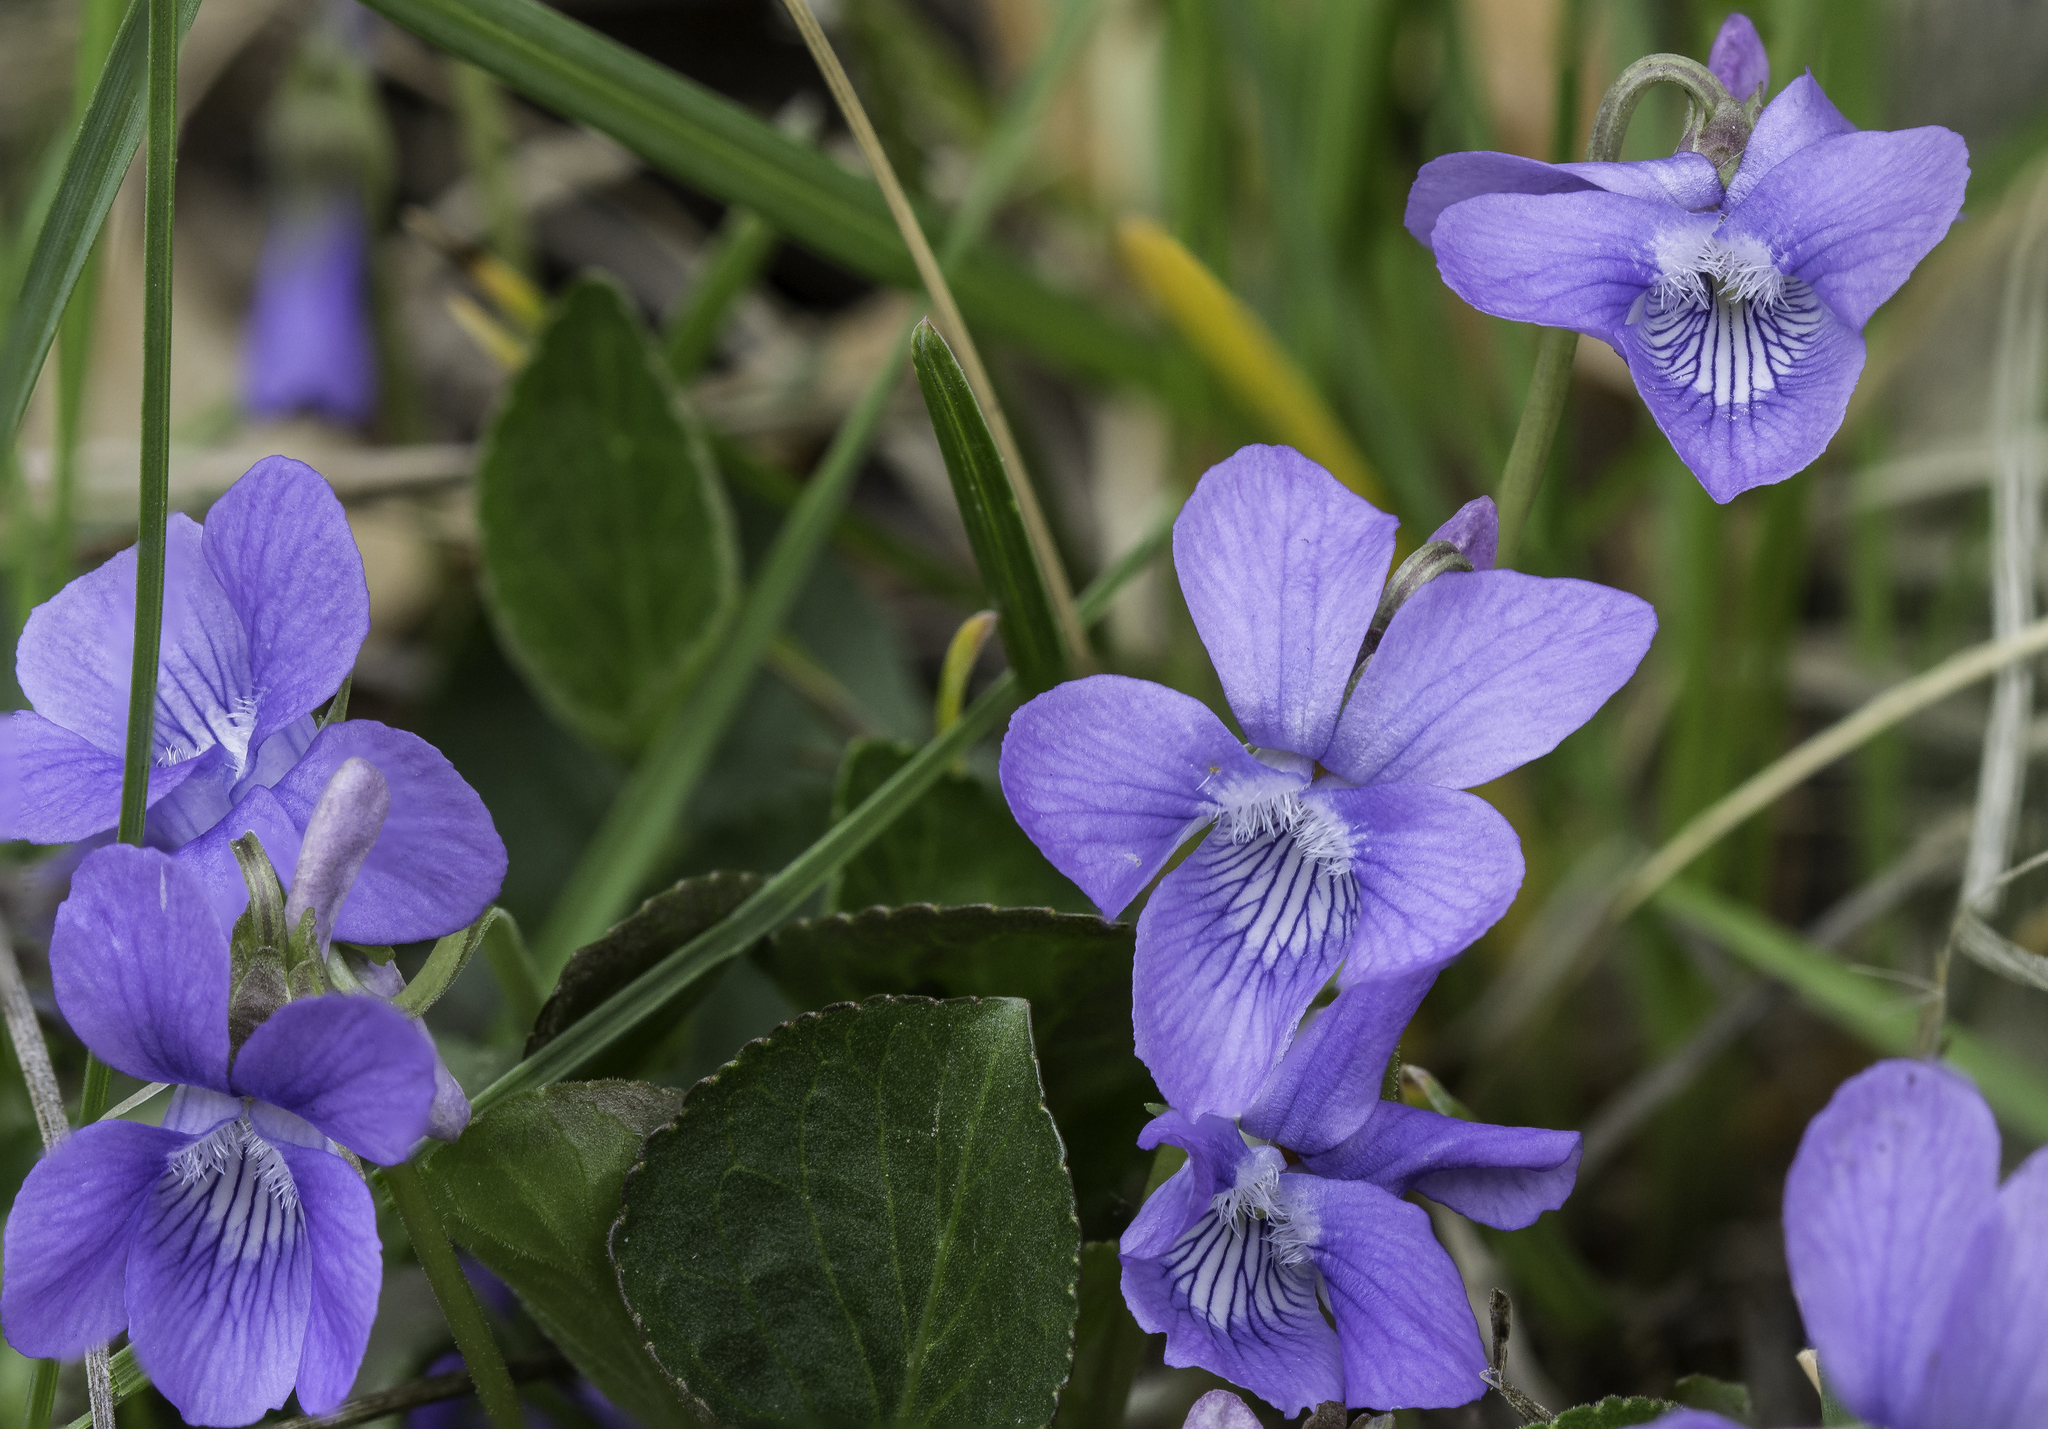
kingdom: Plantae
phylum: Tracheophyta
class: Magnoliopsida
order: Malpighiales
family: Violaceae
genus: Viola
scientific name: Viola adunca
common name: Sand violet
